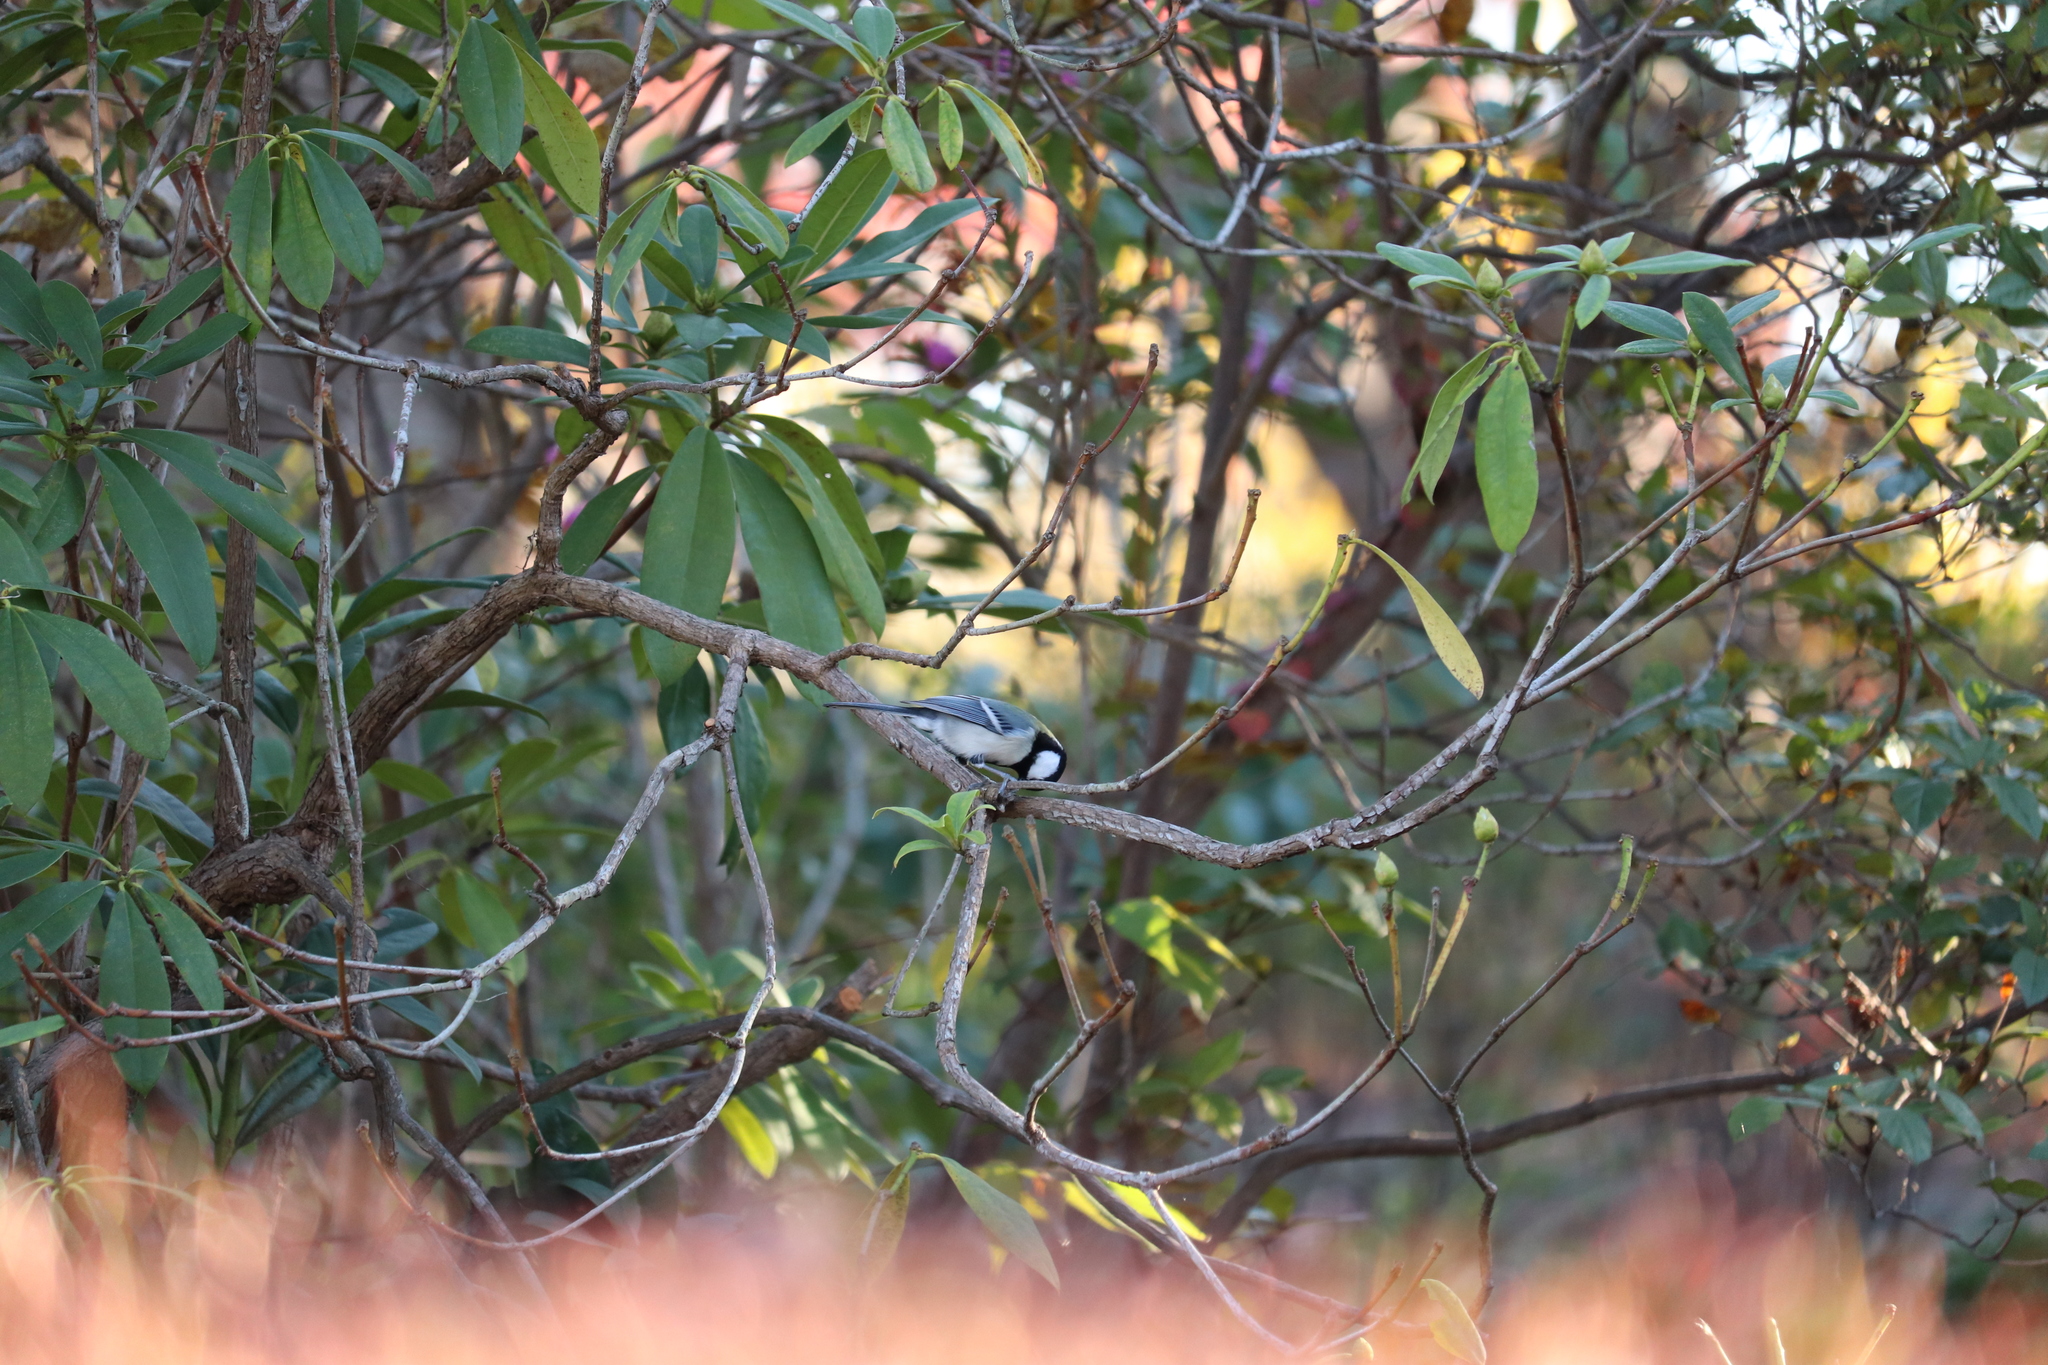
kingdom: Animalia
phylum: Chordata
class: Aves
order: Passeriformes
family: Paridae
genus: Parus
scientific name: Parus minor
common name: Japanese tit
